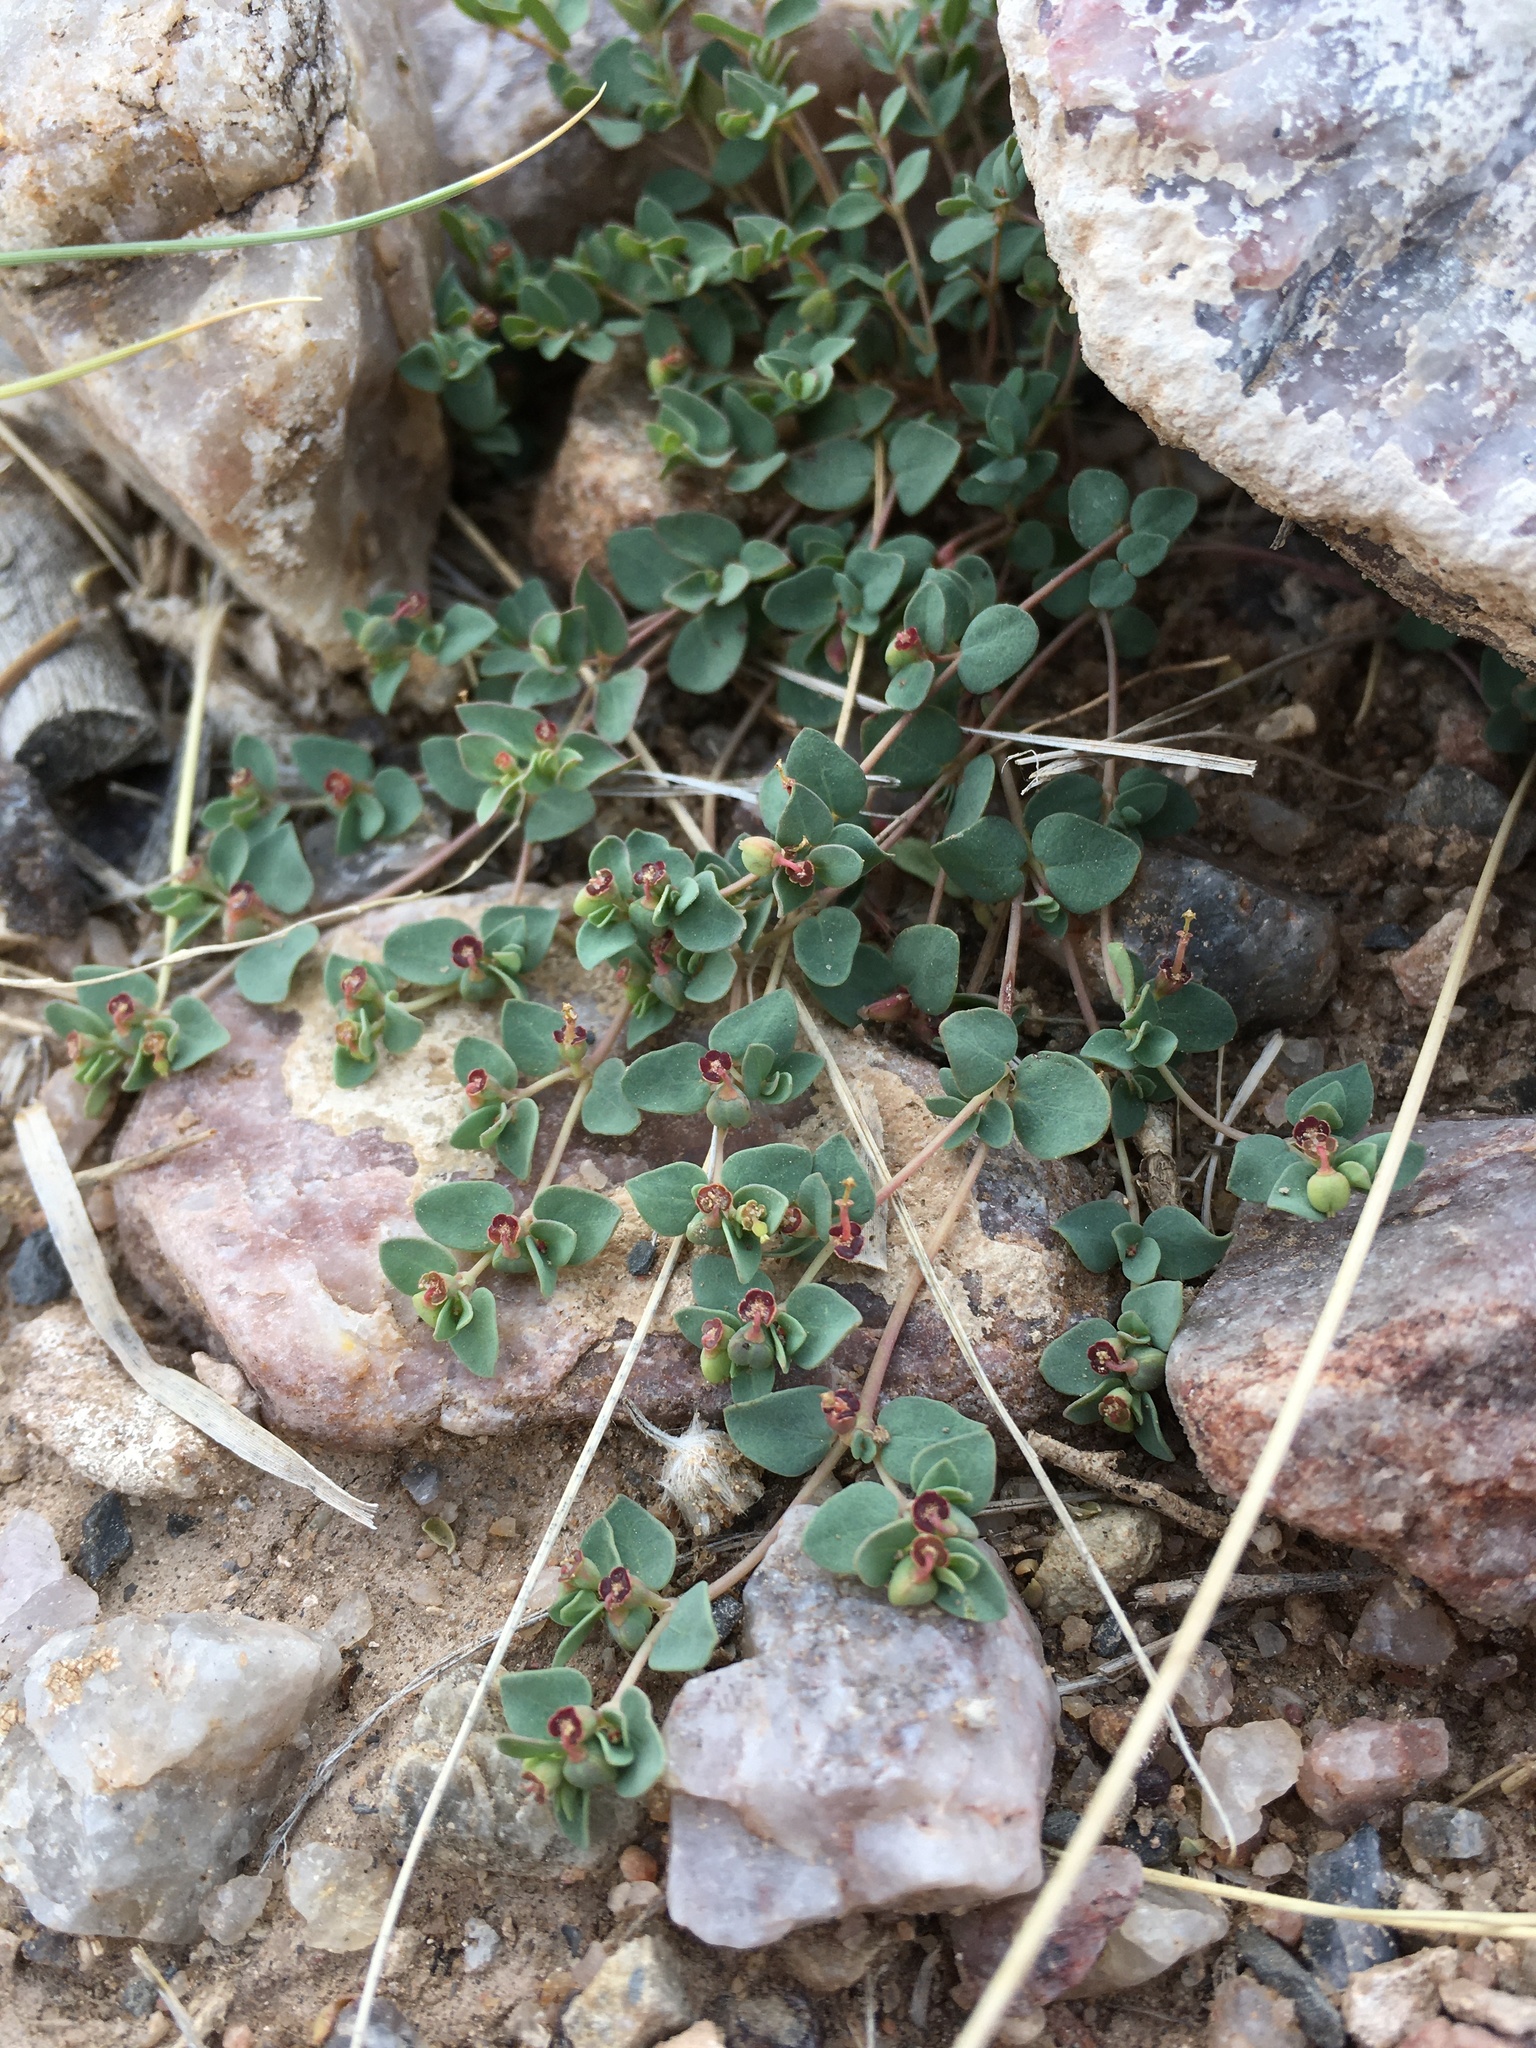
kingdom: Plantae
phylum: Tracheophyta
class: Magnoliopsida
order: Malpighiales
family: Euphorbiaceae
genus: Euphorbia
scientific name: Euphorbia fendleri
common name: Fendler's euphorbia
